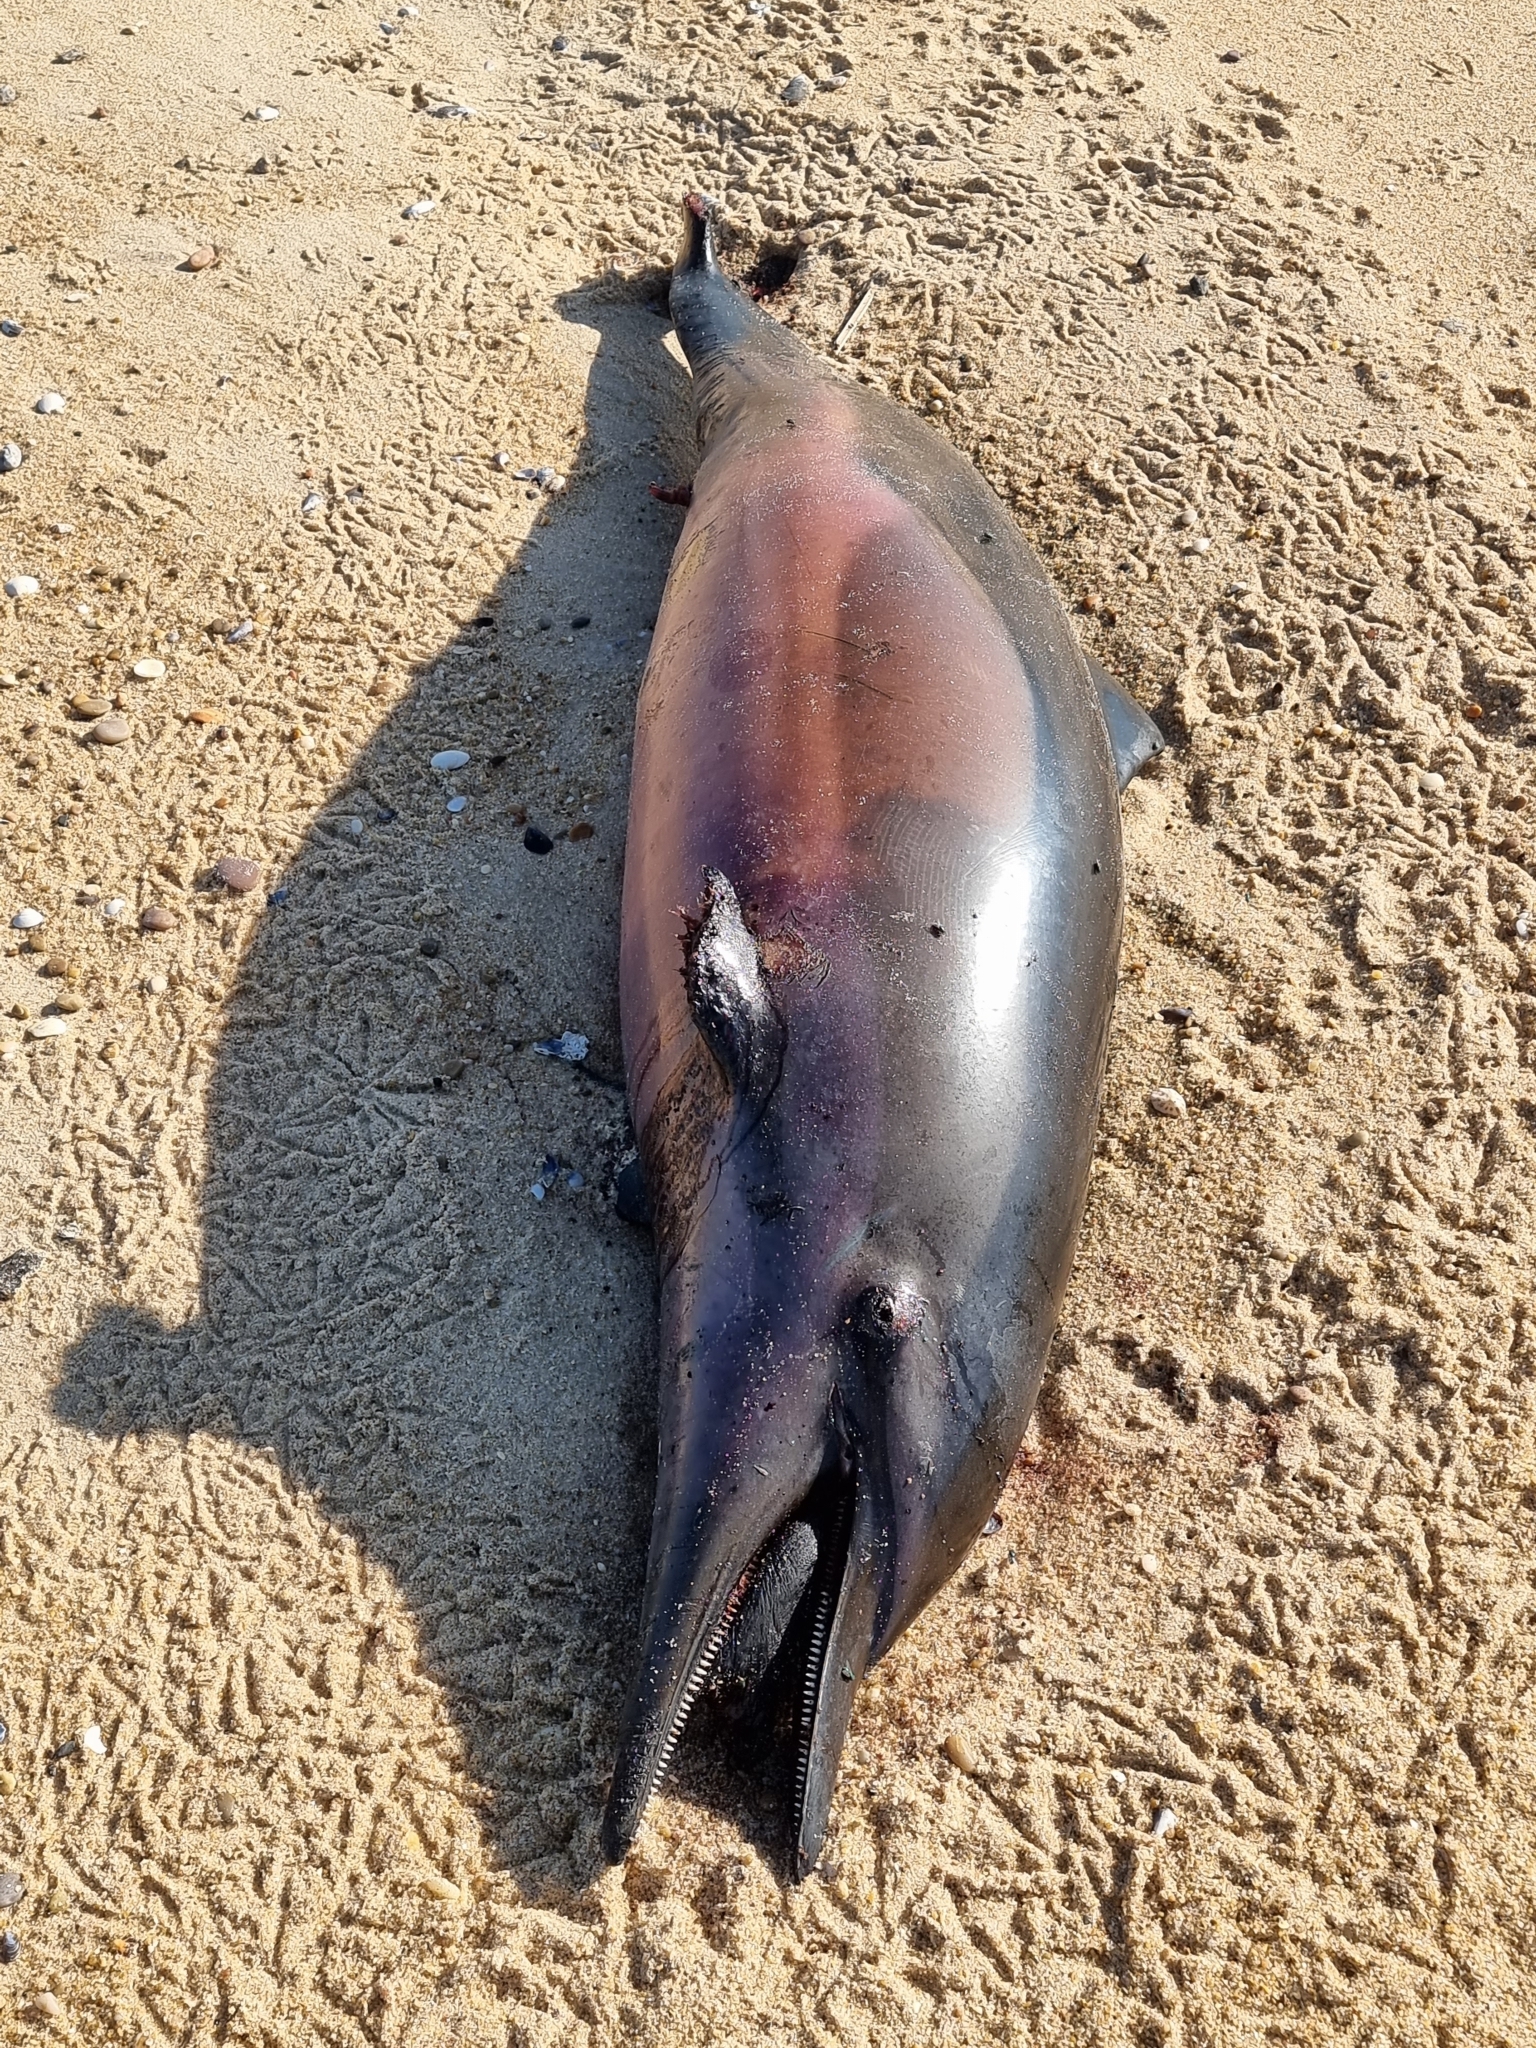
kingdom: Animalia
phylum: Chordata
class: Mammalia
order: Cetacea
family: Delphinidae
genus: Delphinus
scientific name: Delphinus delphis
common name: Common dolphin
